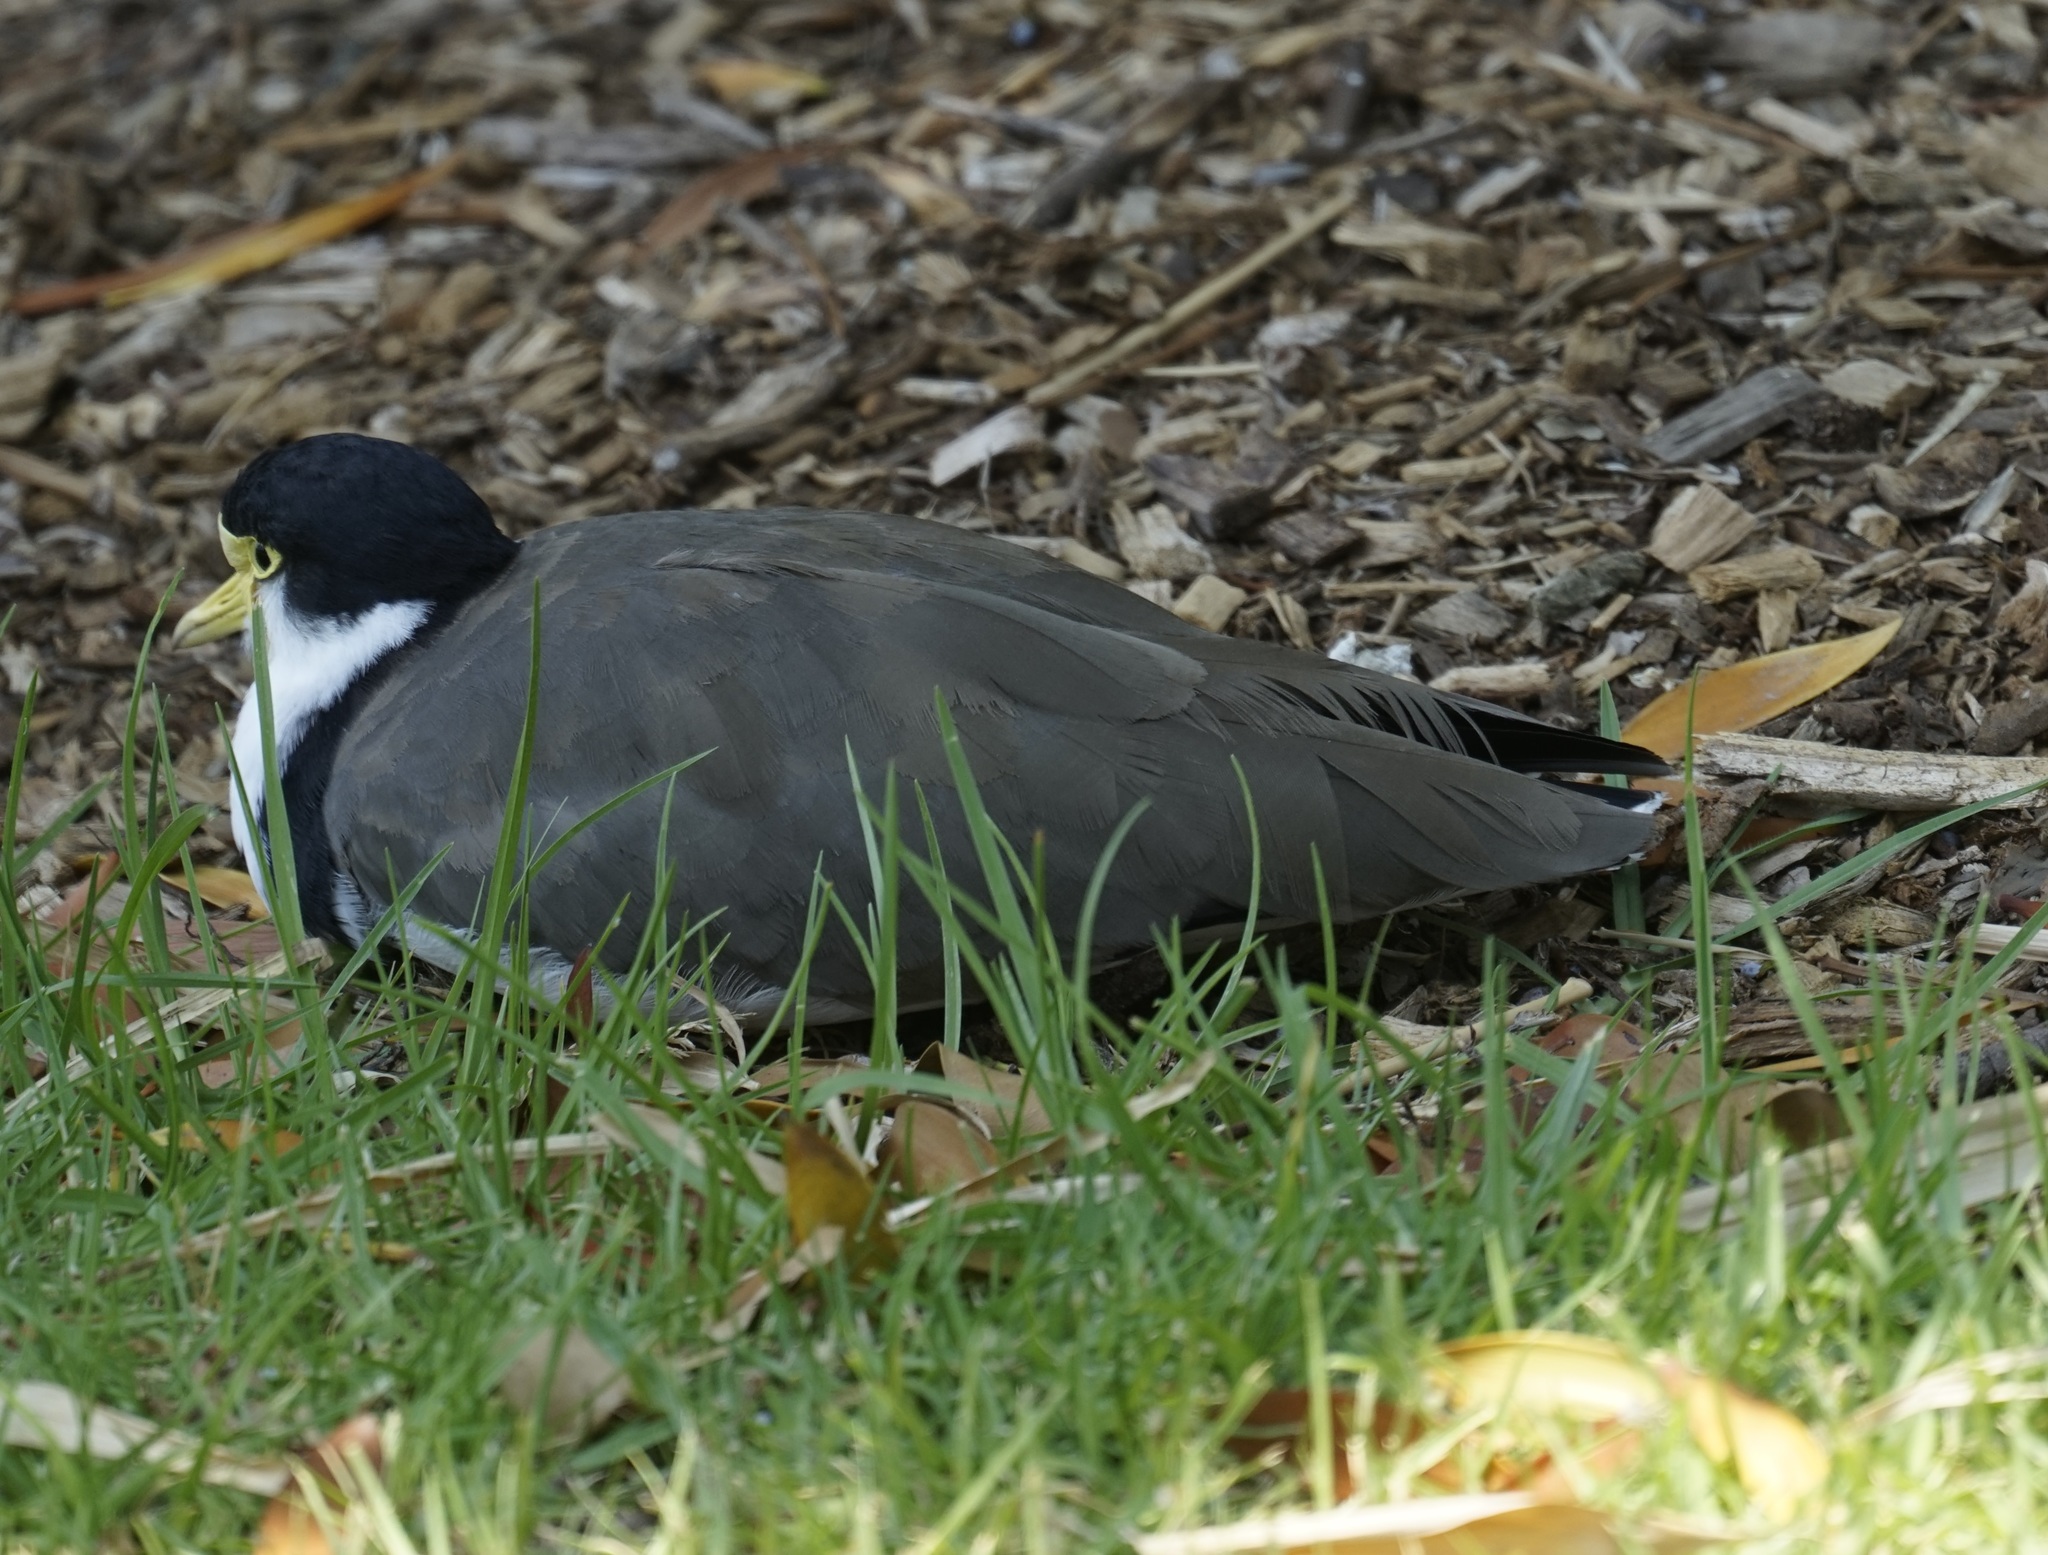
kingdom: Animalia
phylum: Chordata
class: Aves
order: Charadriiformes
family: Charadriidae
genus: Vanellus
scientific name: Vanellus miles
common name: Masked lapwing
